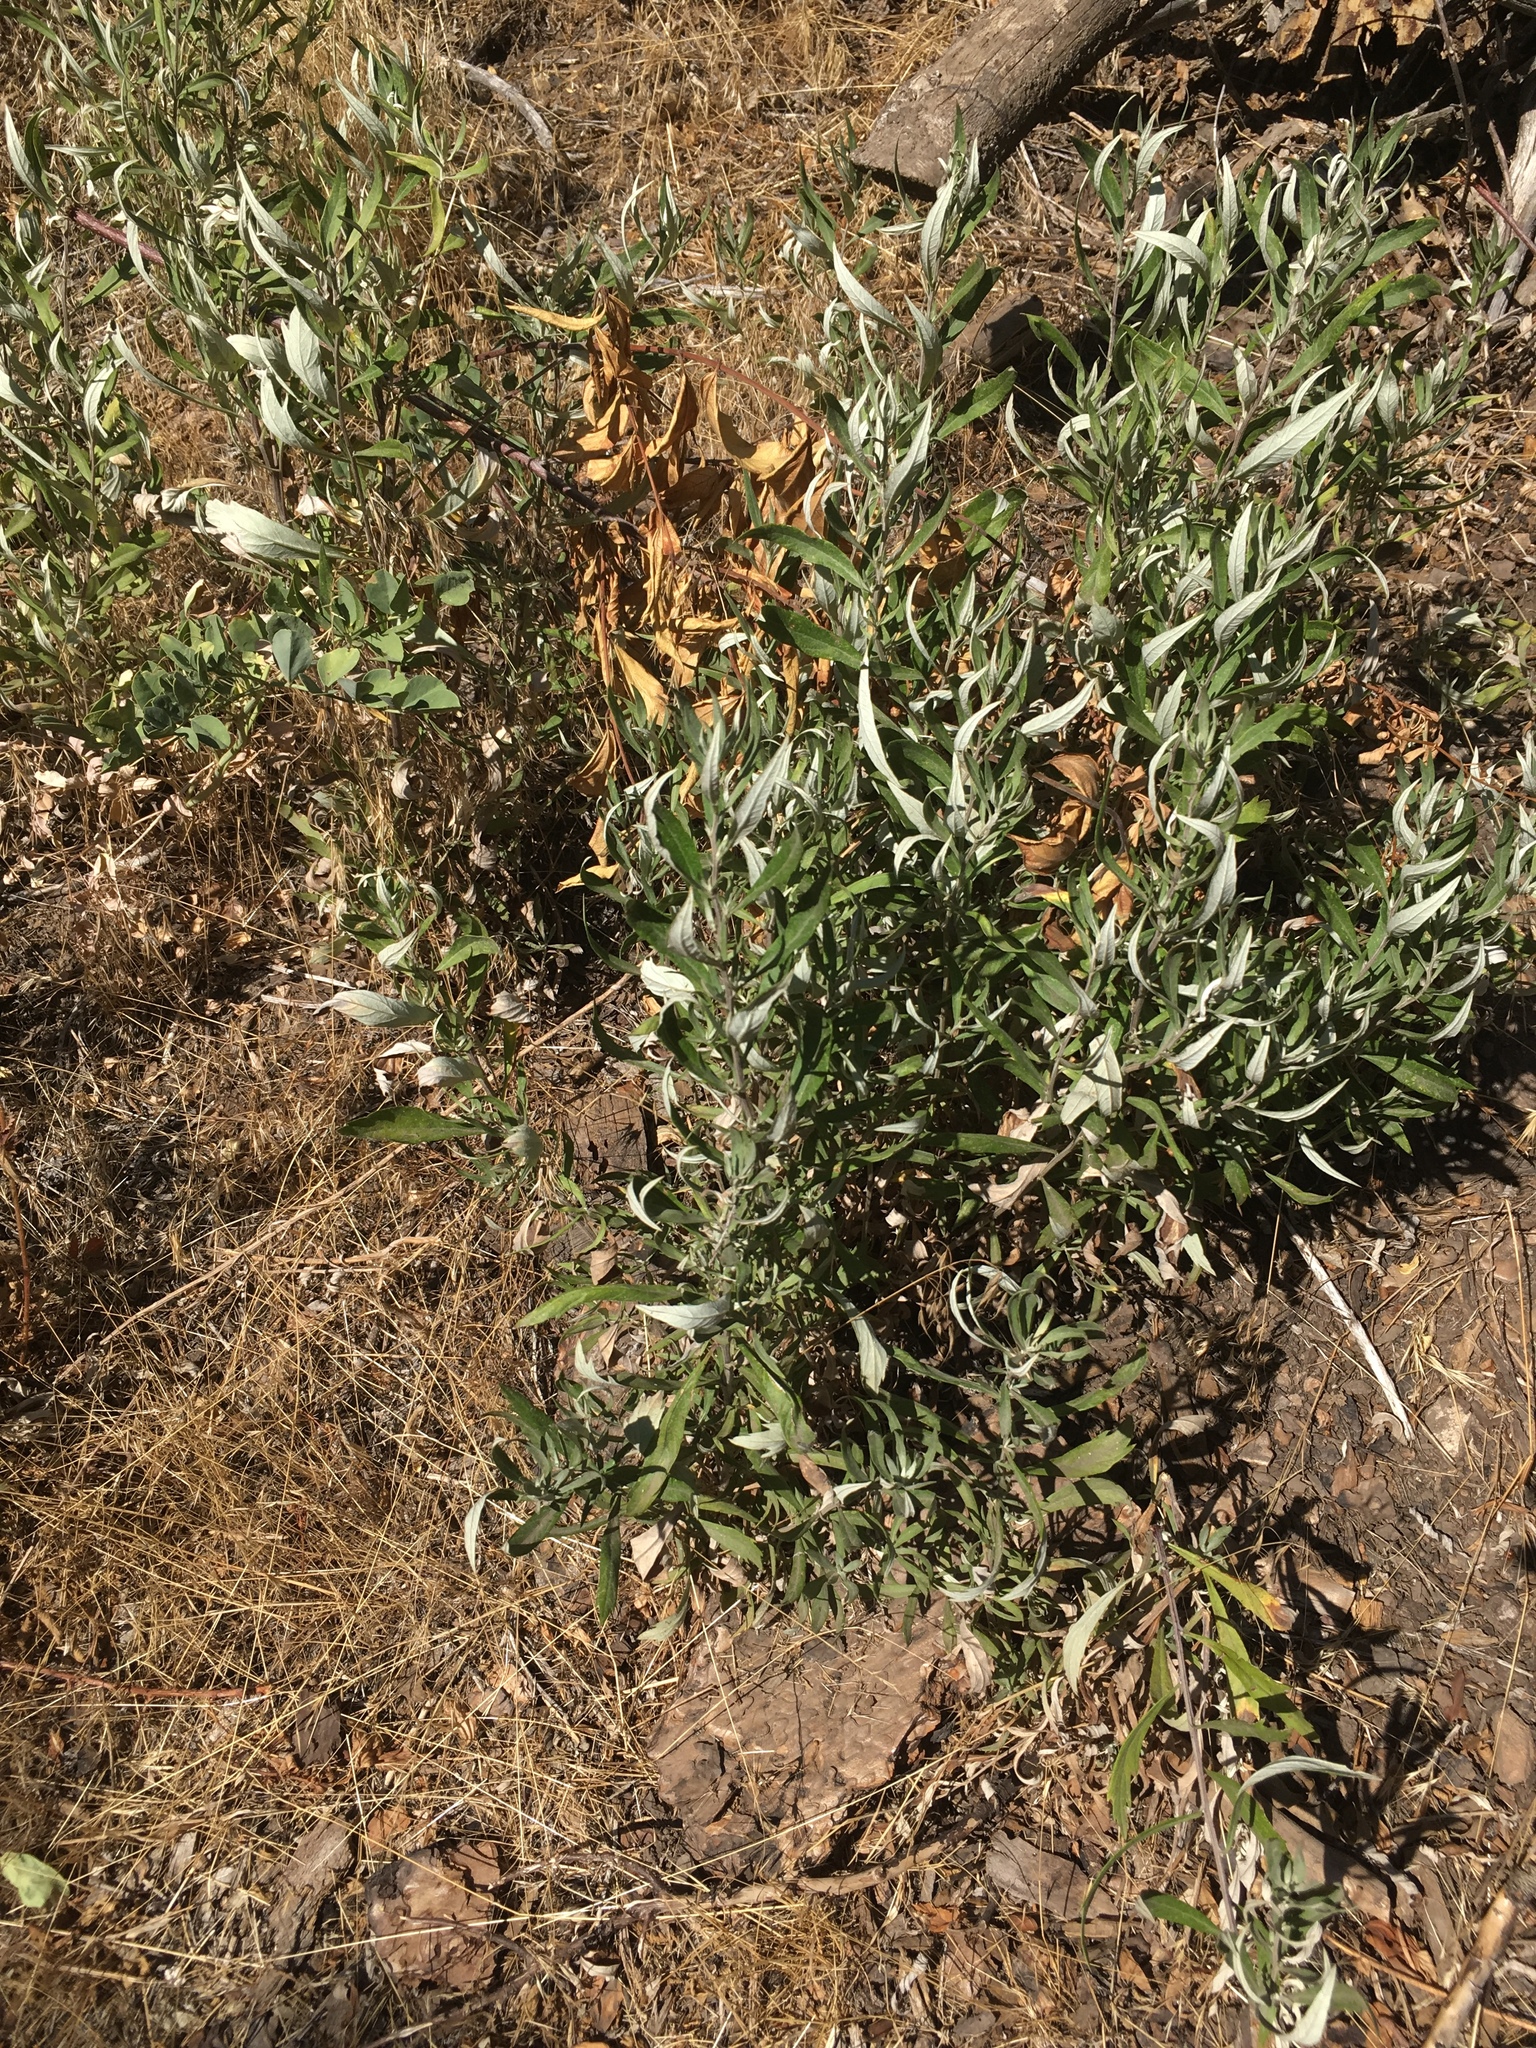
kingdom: Plantae
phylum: Tracheophyta
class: Magnoliopsida
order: Asterales
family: Asteraceae
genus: Artemisia
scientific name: Artemisia douglasiana
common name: Northwest mugwort
